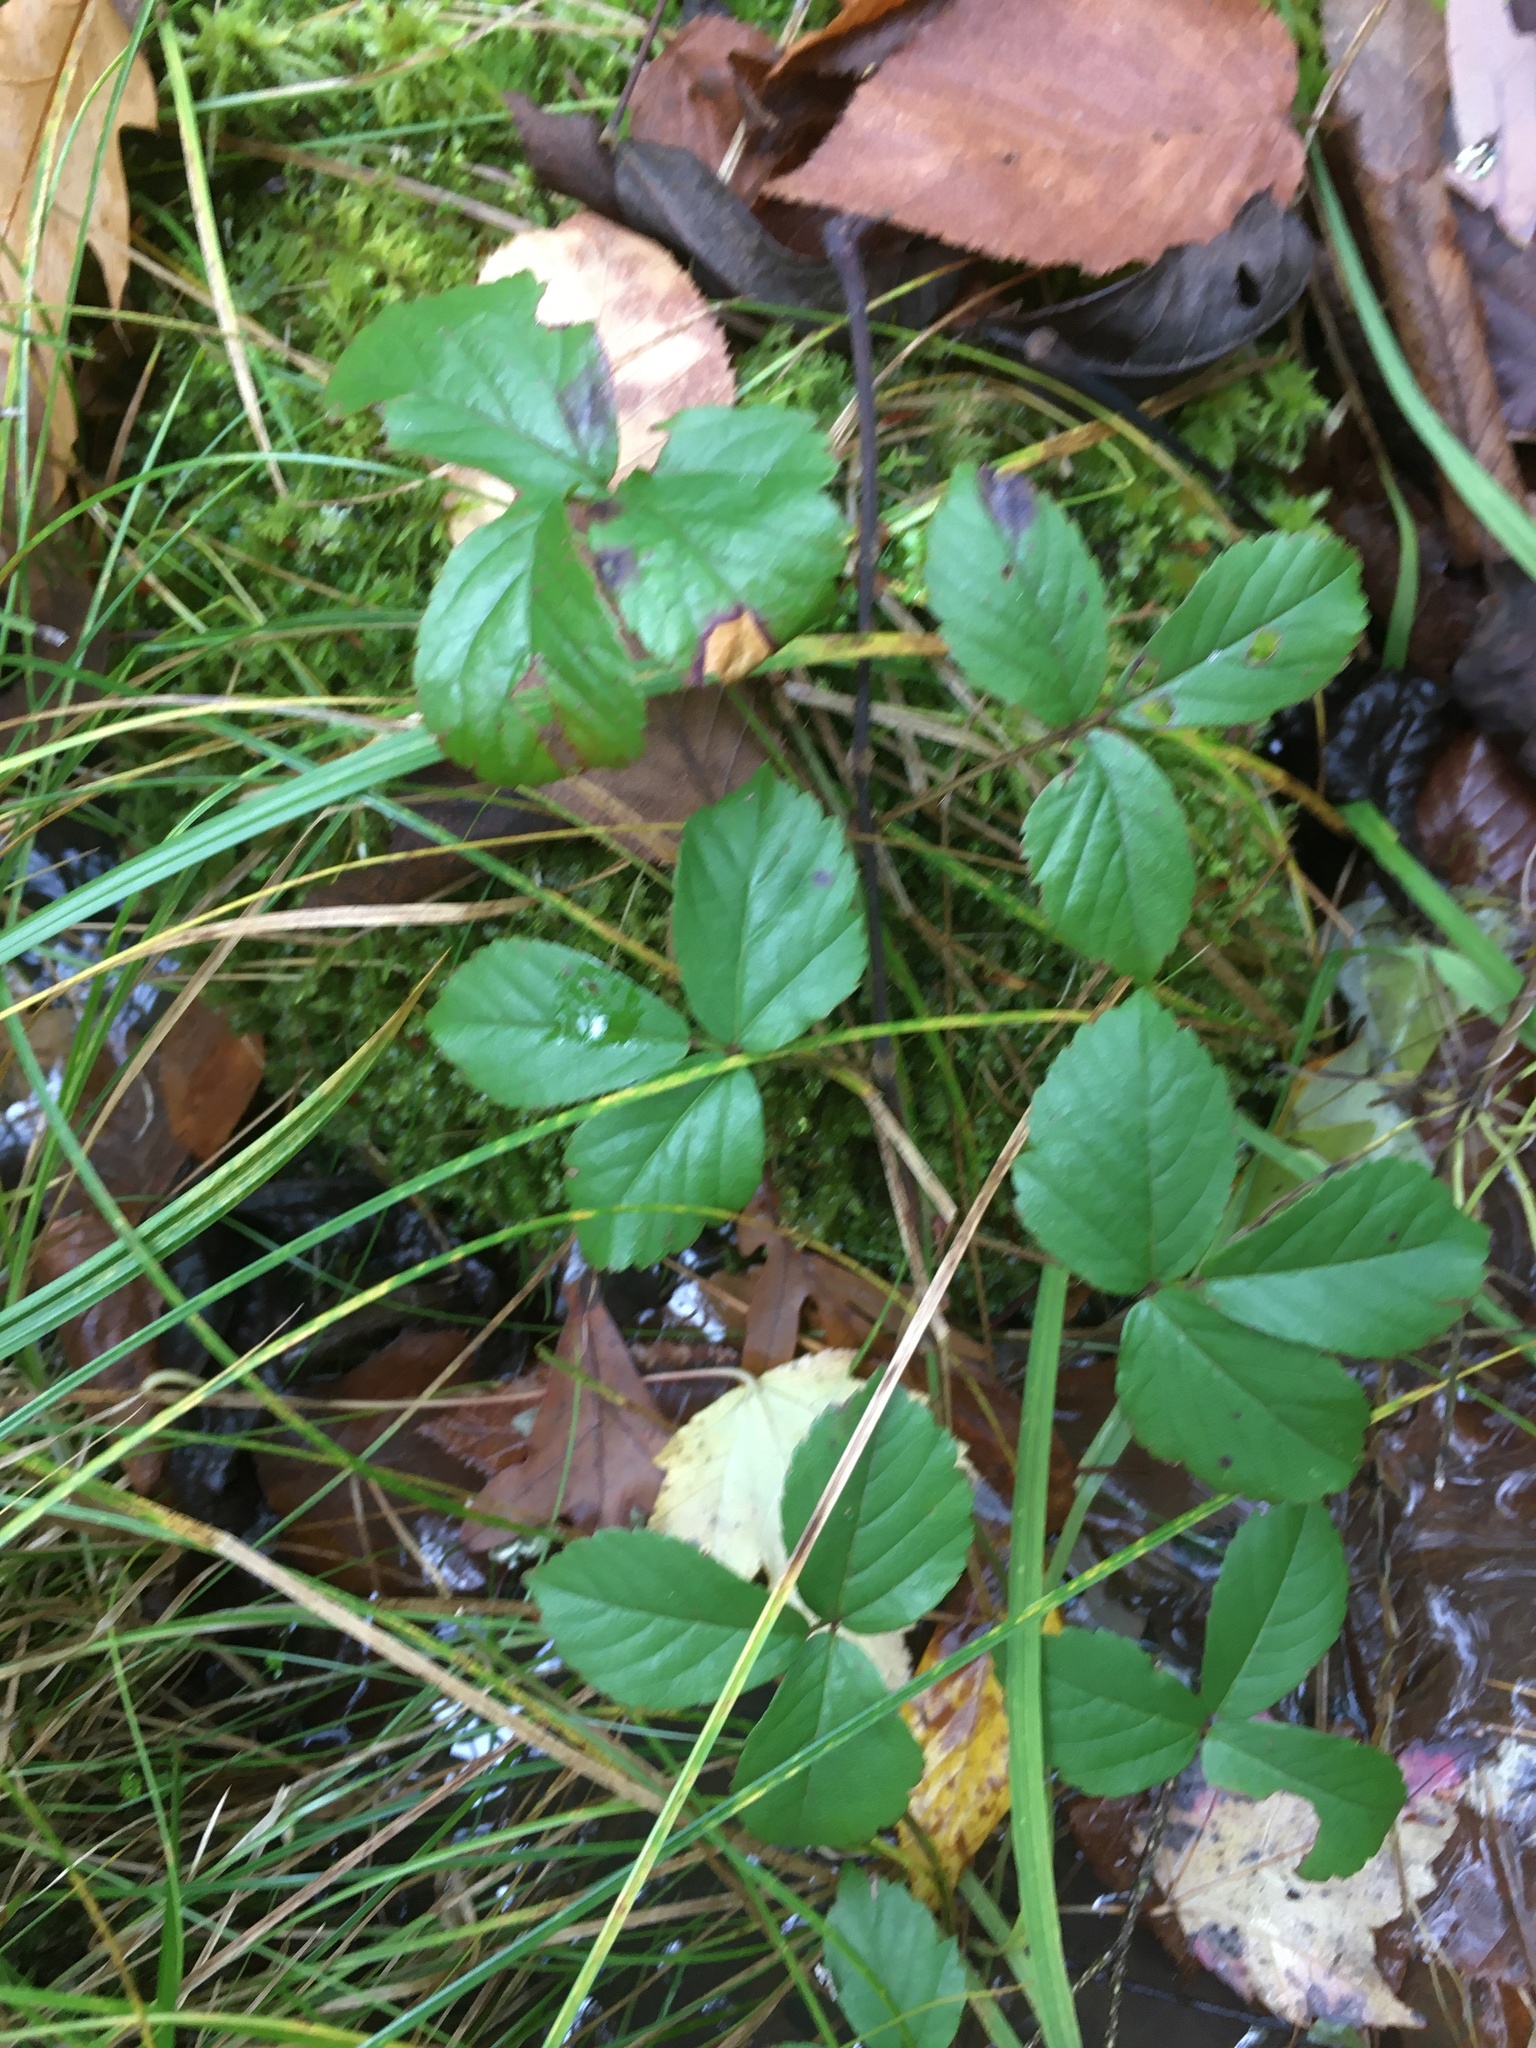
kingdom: Plantae
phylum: Tracheophyta
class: Magnoliopsida
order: Rosales
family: Rosaceae
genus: Rubus
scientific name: Rubus hispidus
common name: Running blackberry
